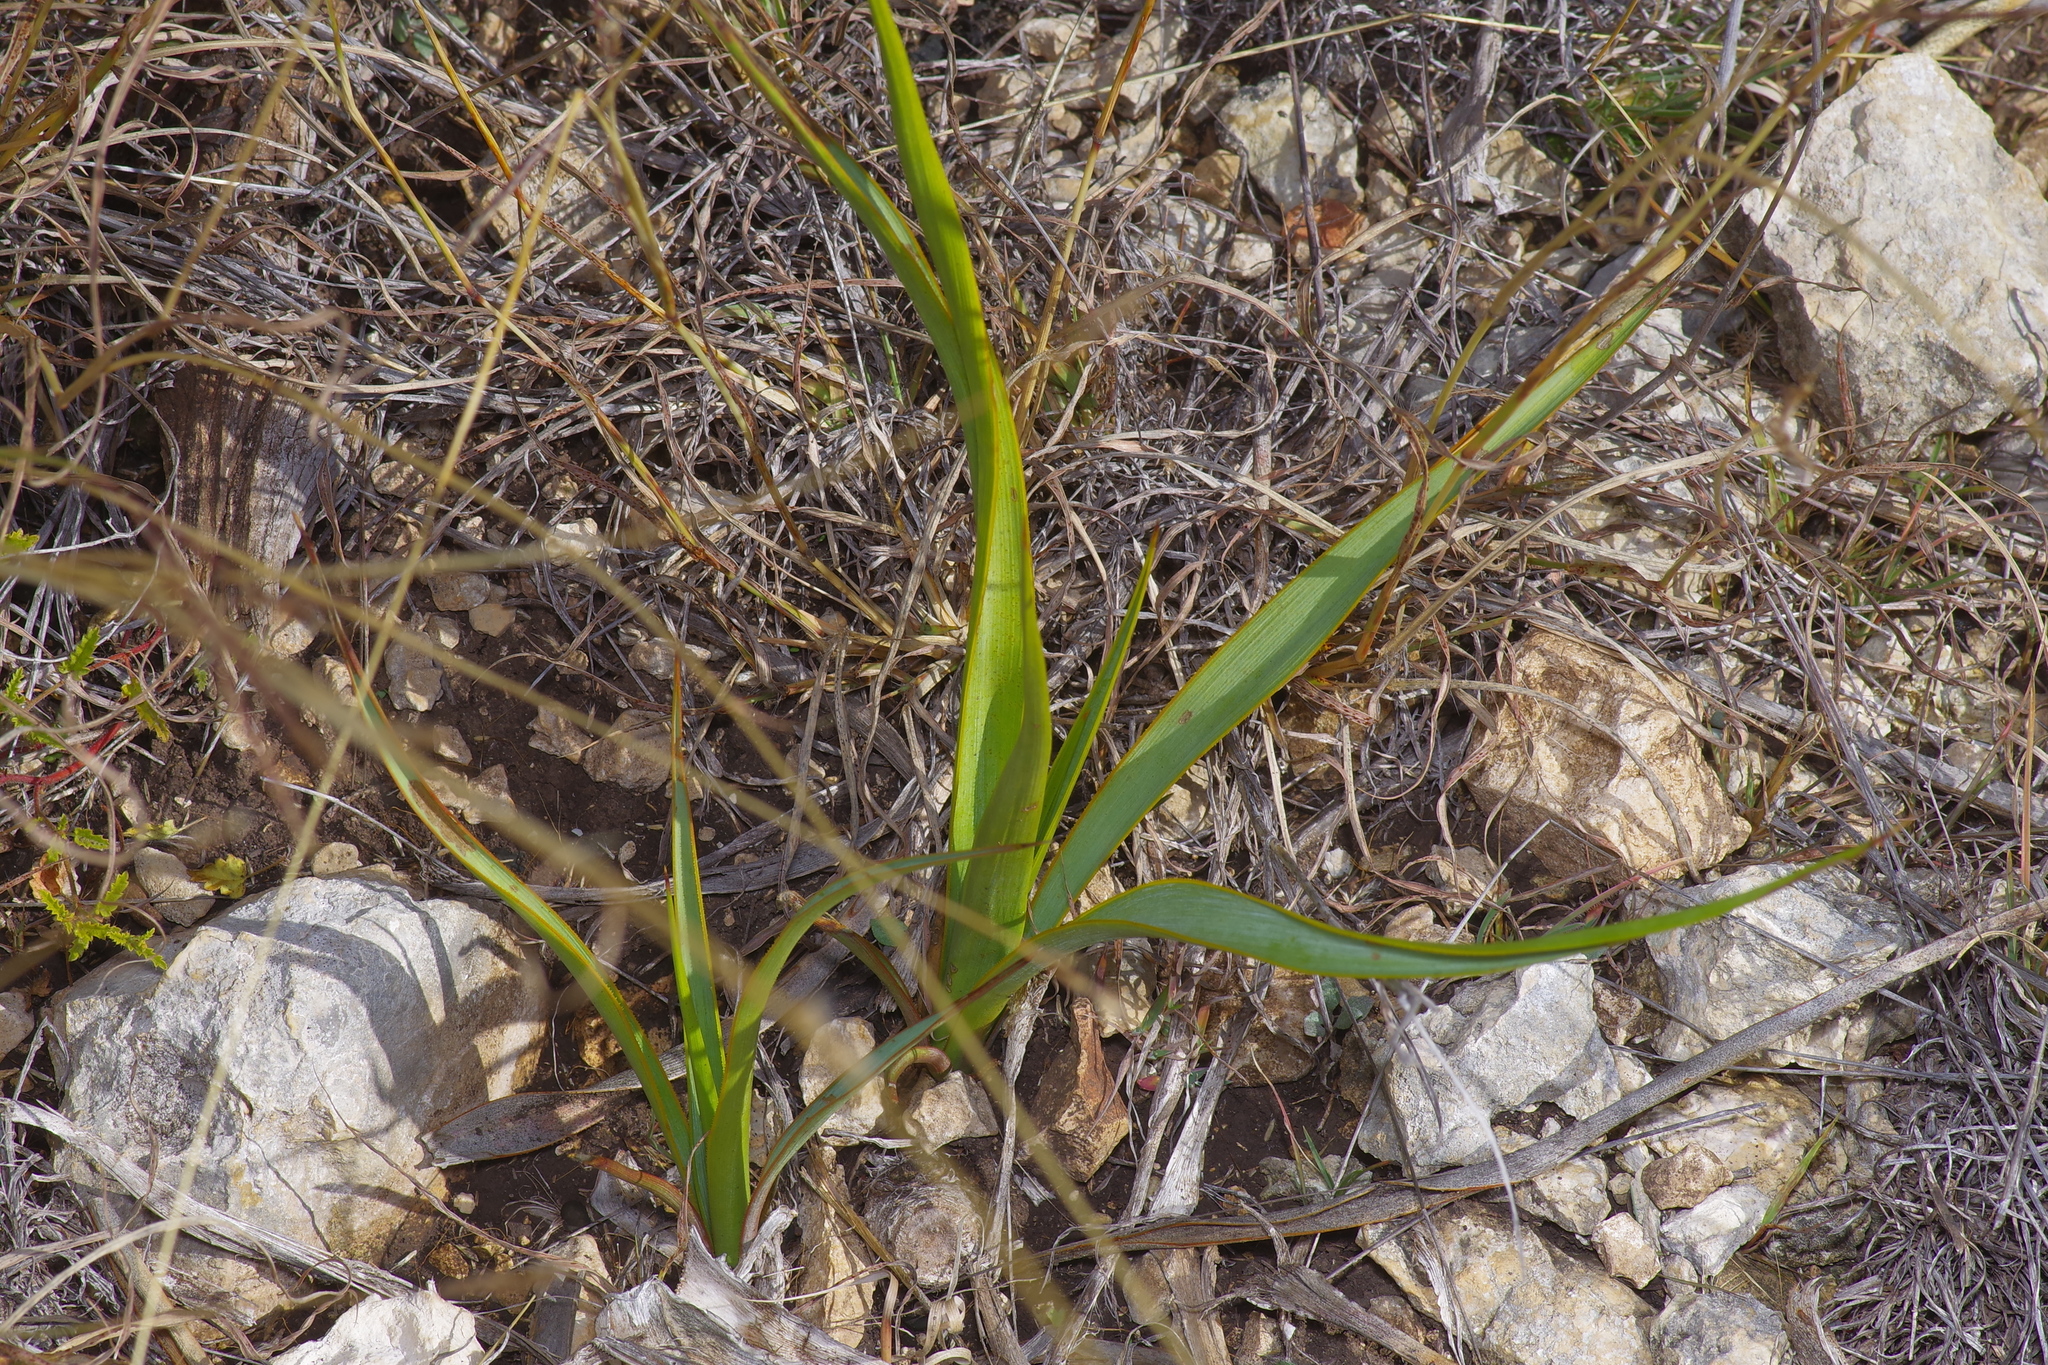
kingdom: Plantae
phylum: Tracheophyta
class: Liliopsida
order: Asparagales
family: Asparagaceae
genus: Yucca
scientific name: Yucca rupicola
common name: Twisted-leaf spanish-dagger
